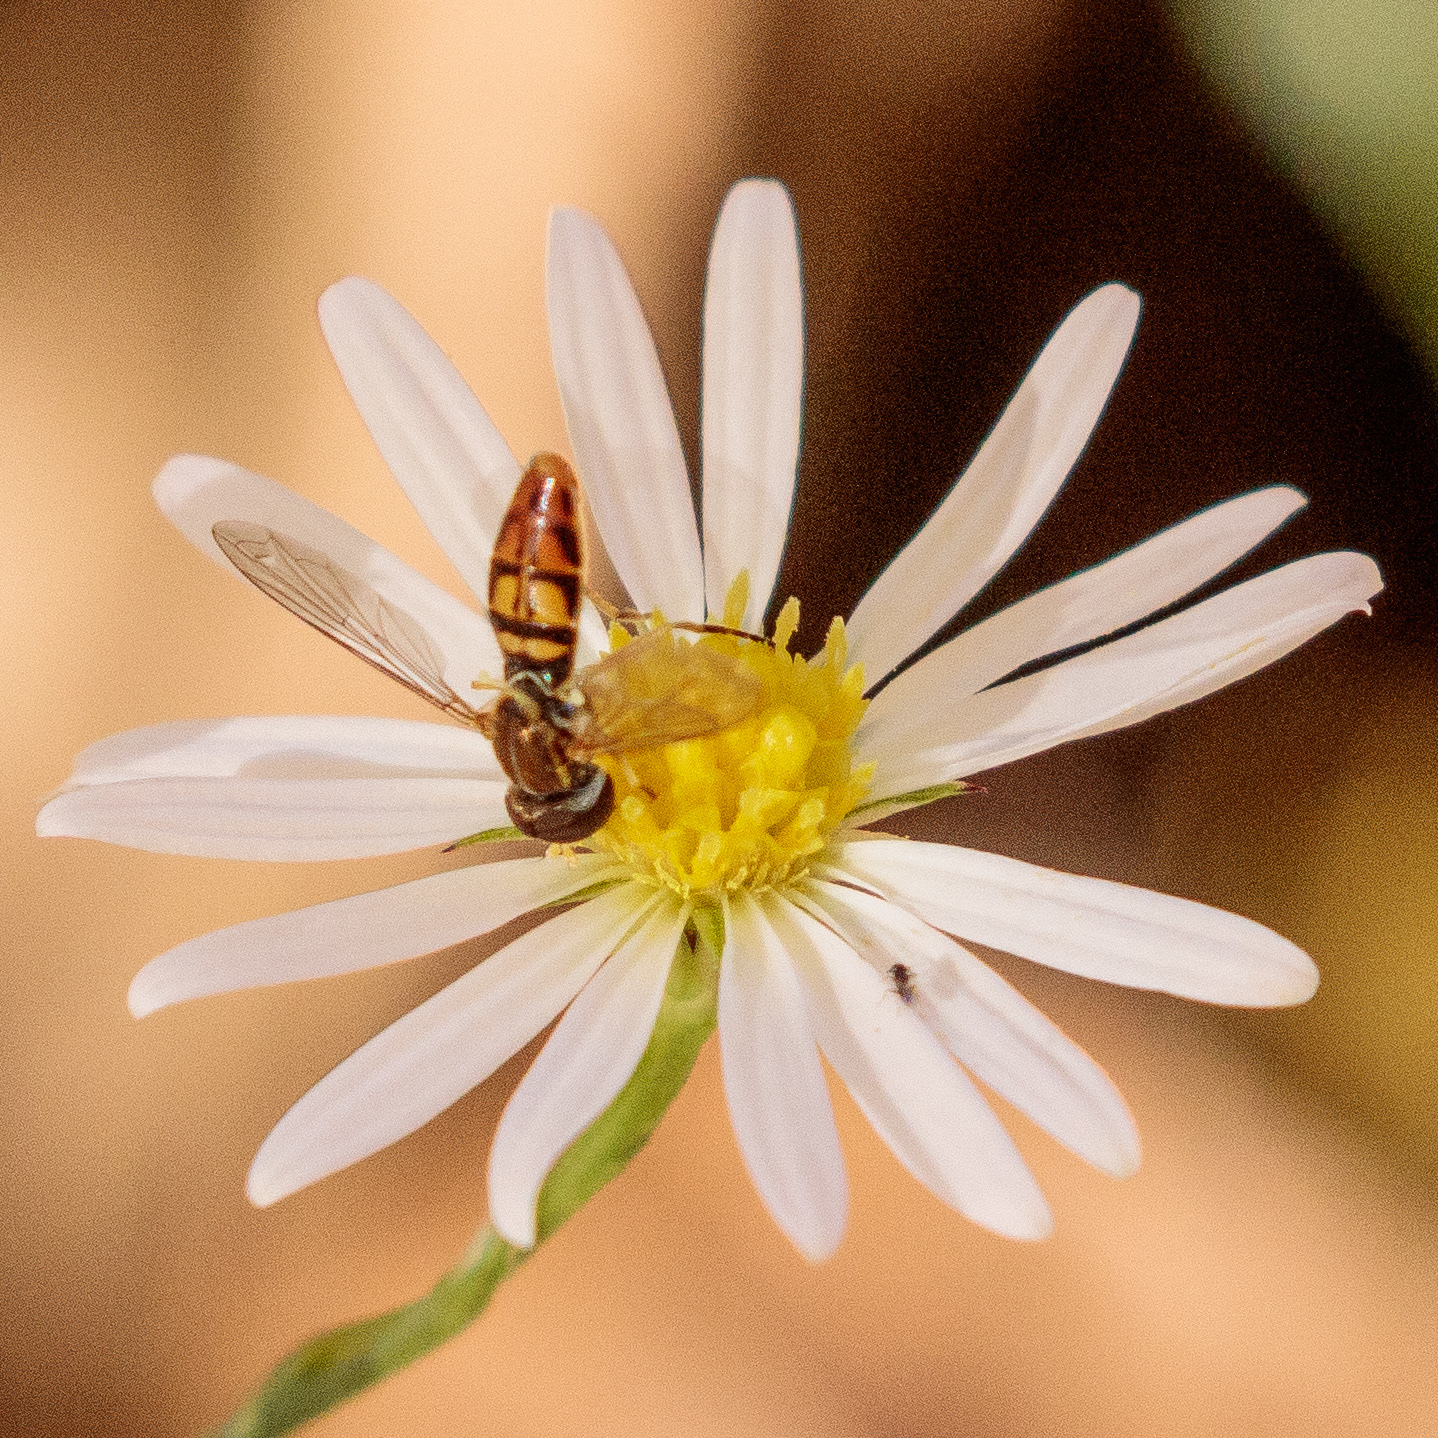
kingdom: Animalia
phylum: Arthropoda
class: Insecta
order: Diptera
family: Syrphidae
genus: Toxomerus
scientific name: Toxomerus marginatus
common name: Syrphid fly
